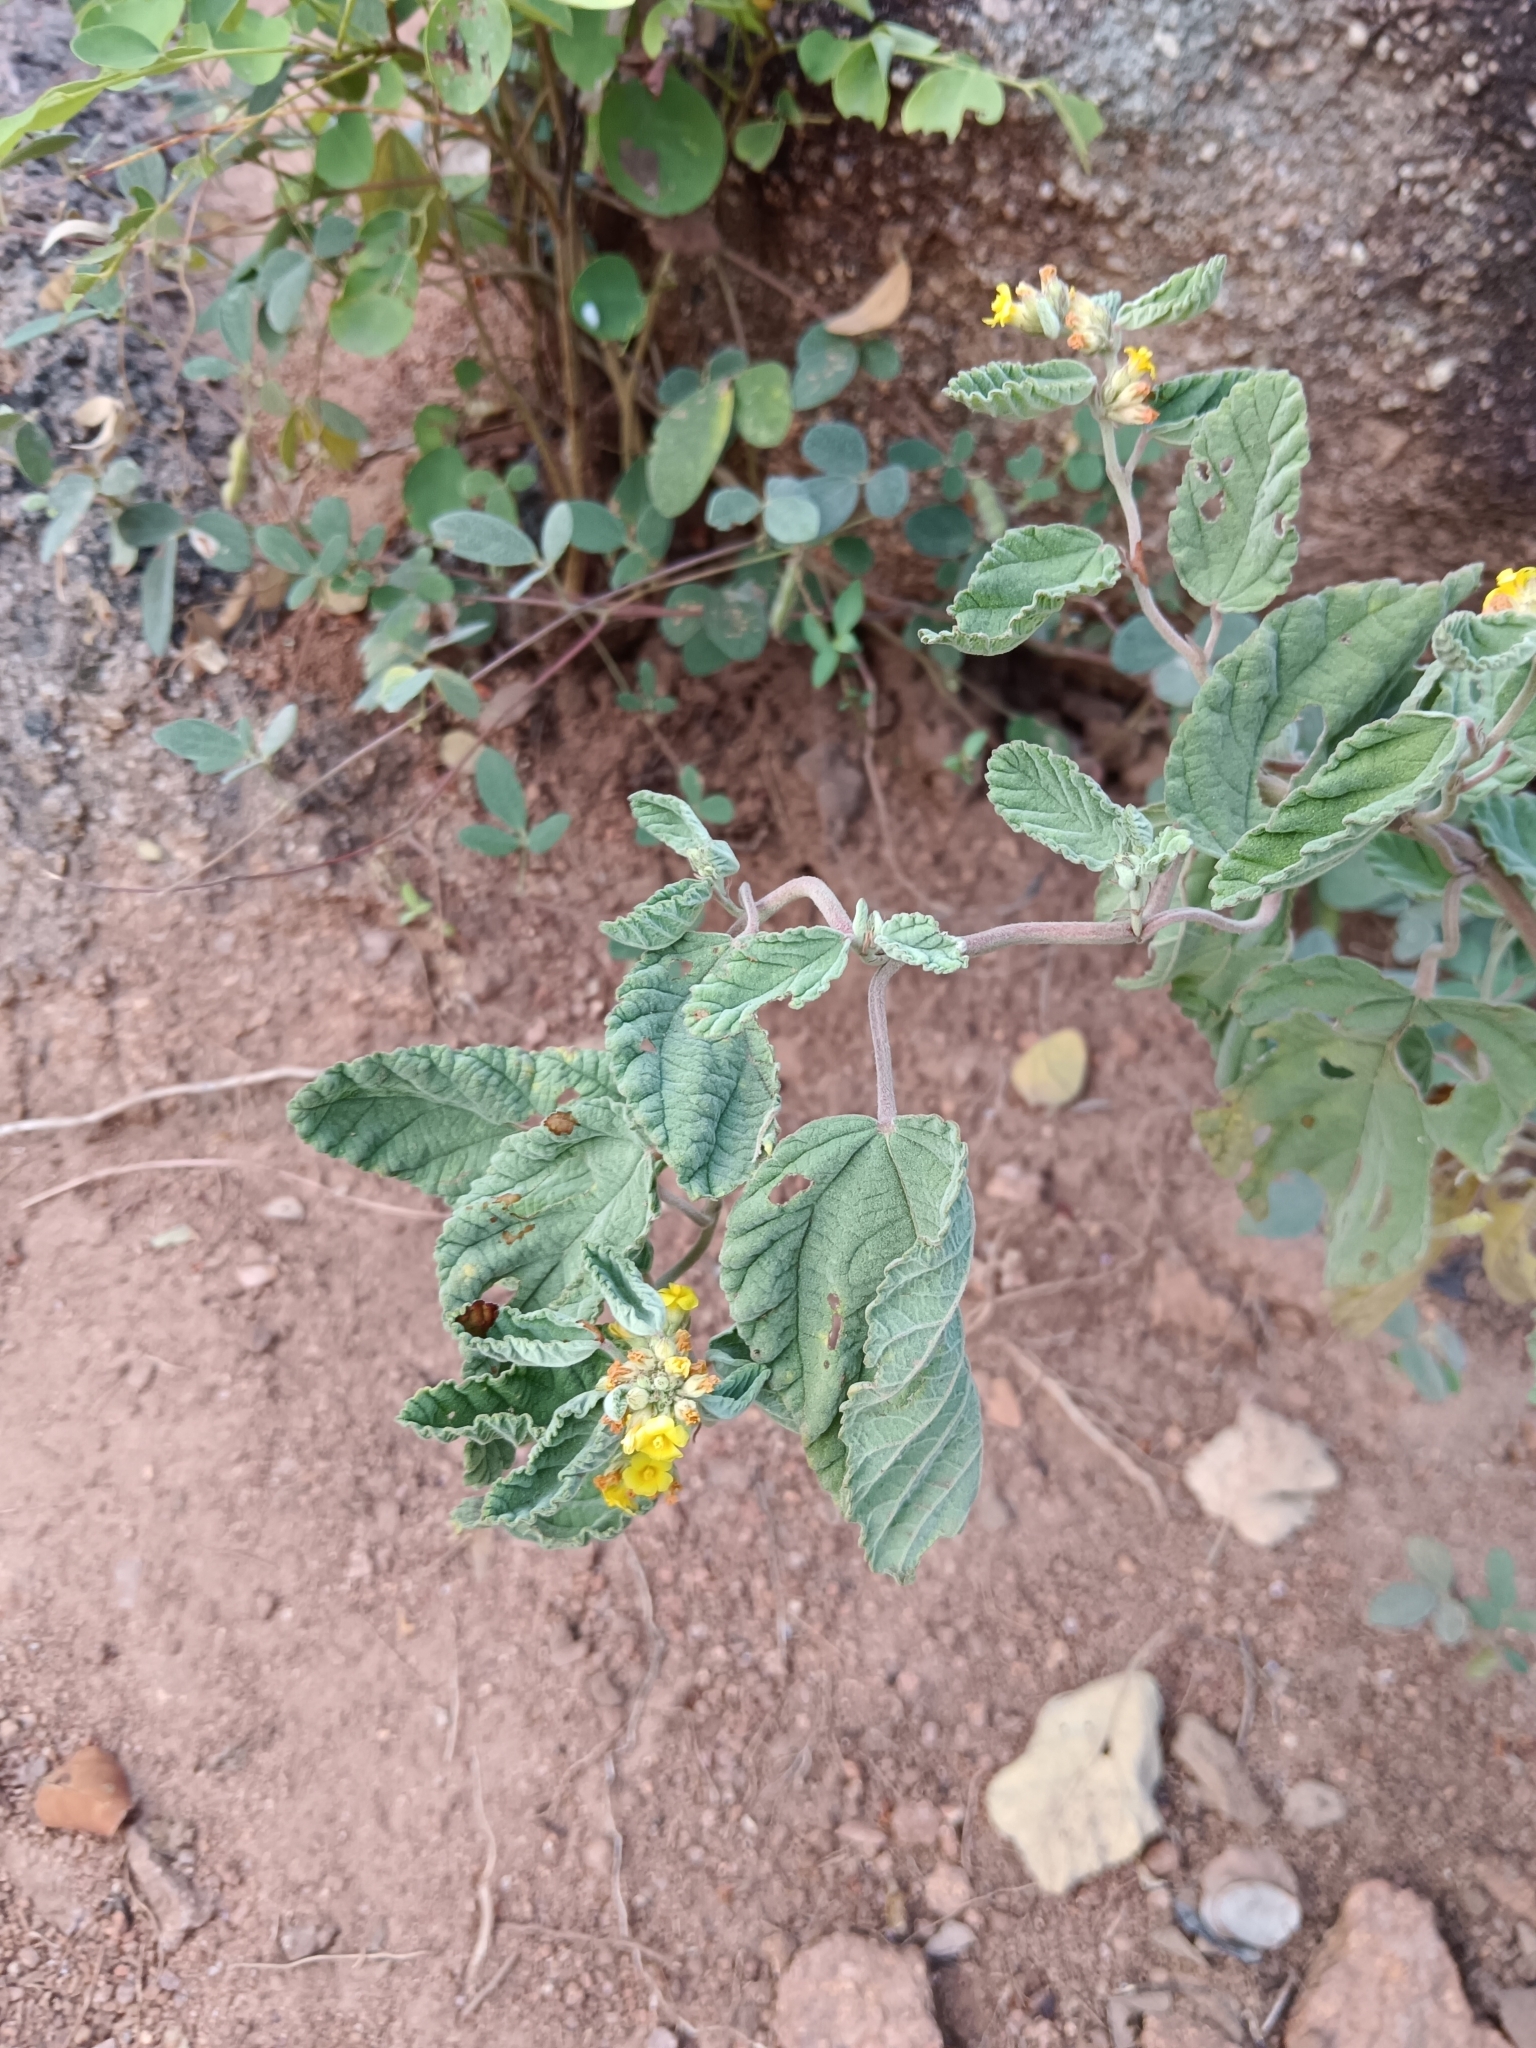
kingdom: Plantae
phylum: Tracheophyta
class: Magnoliopsida
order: Malvales
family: Malvaceae
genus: Waltheria
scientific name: Waltheria indica
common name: Leather-coat
